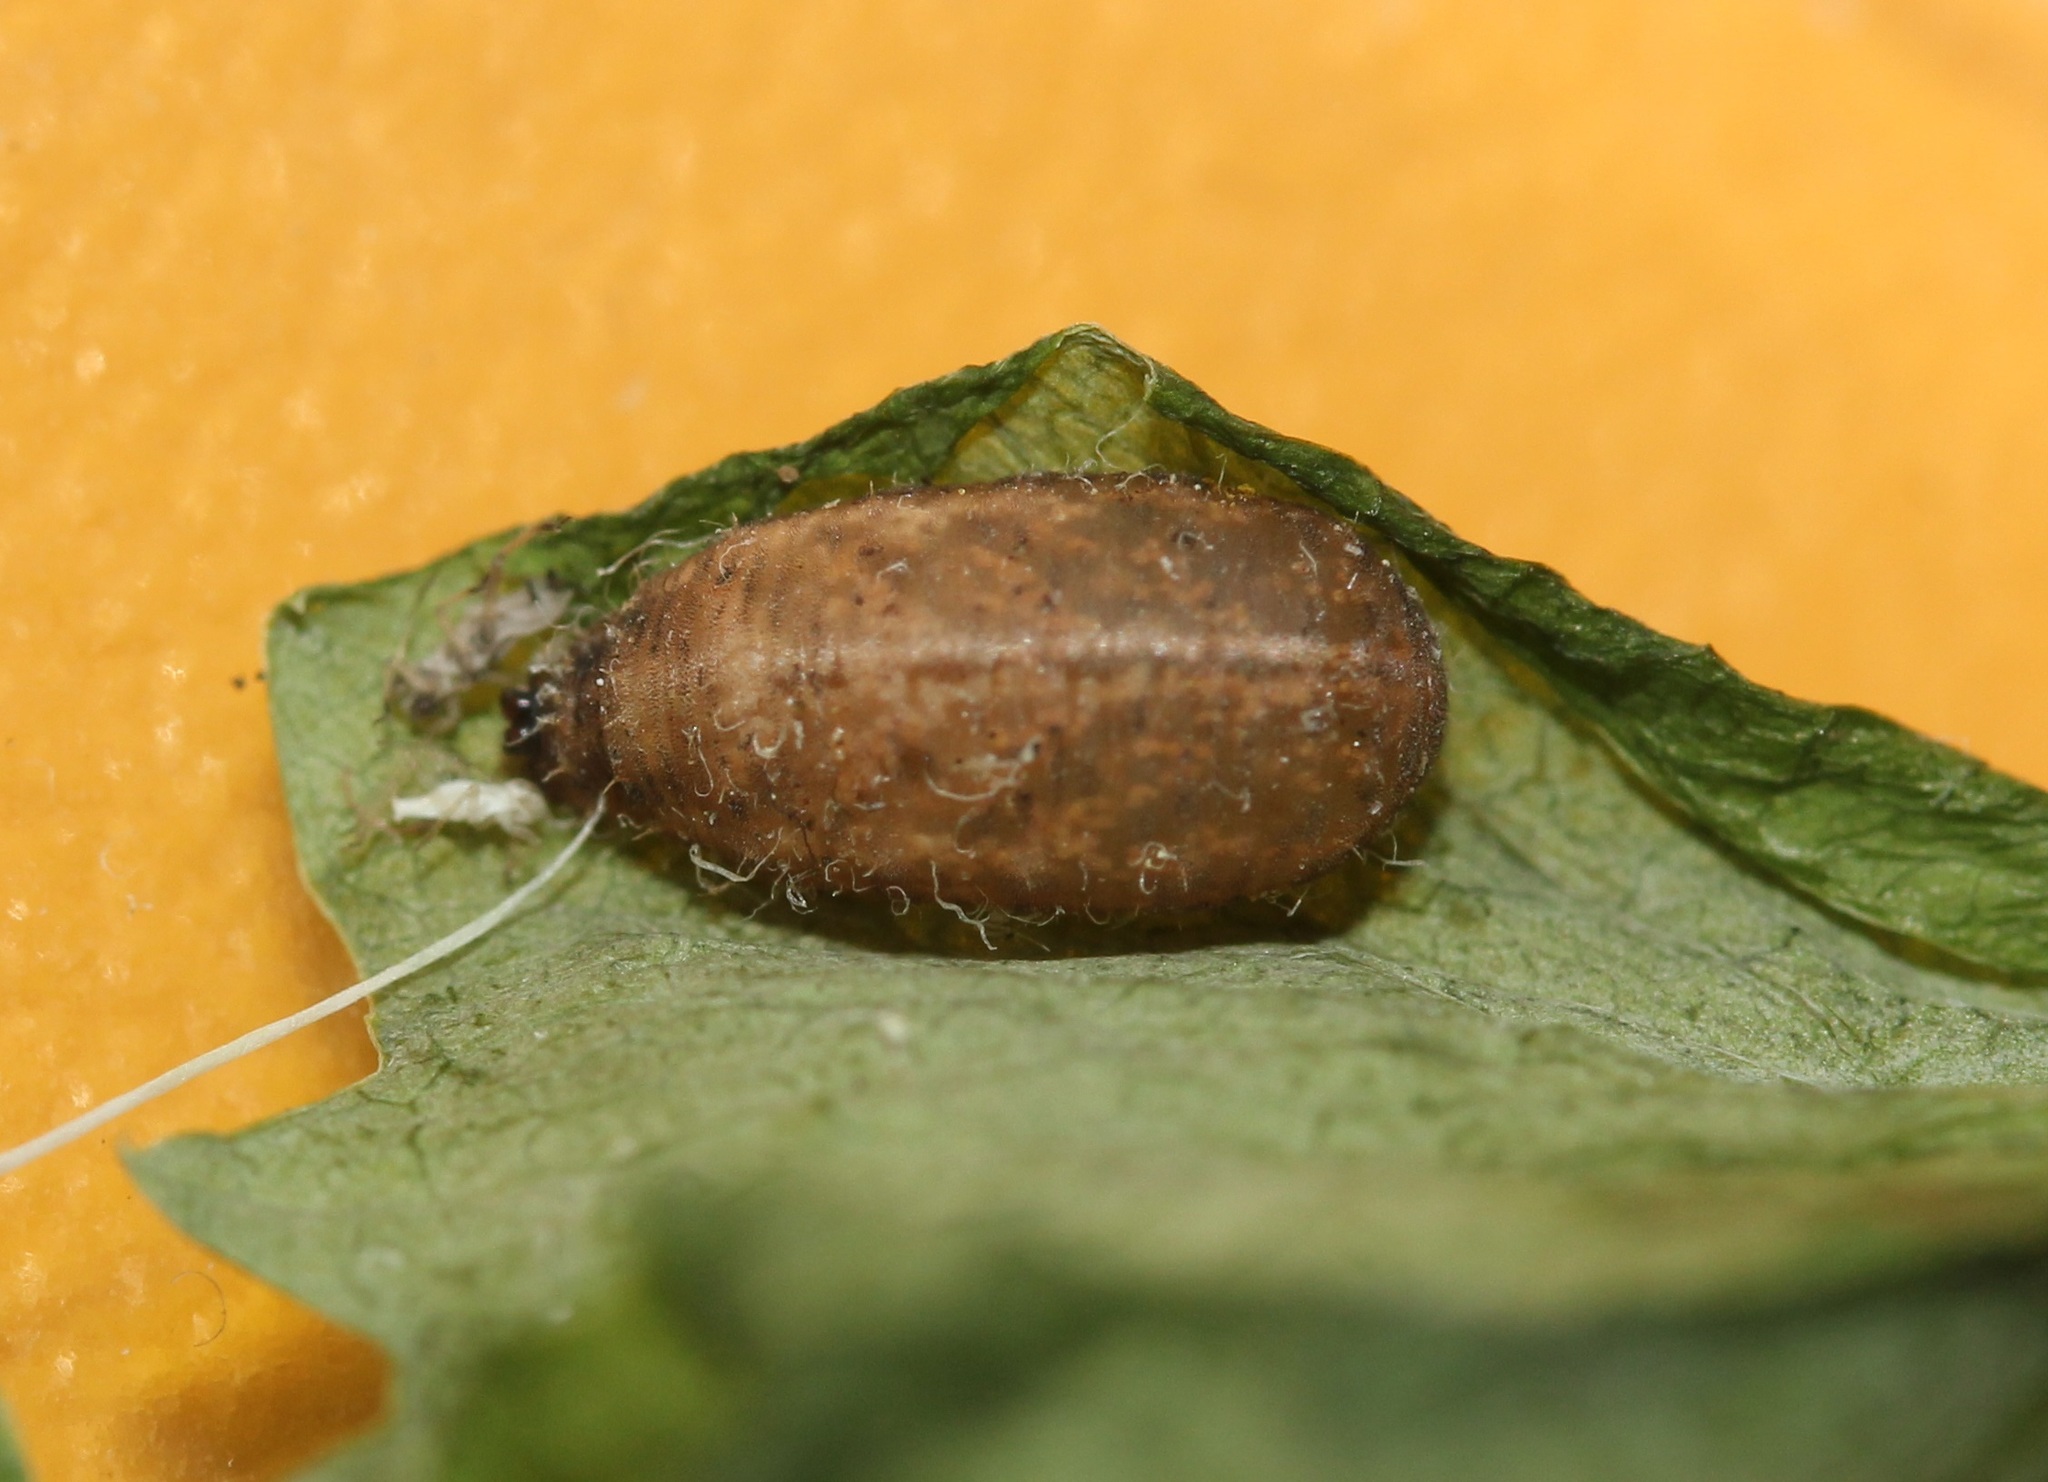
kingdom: Animalia
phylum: Arthropoda
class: Insecta
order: Diptera
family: Syrphidae
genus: Eupeodes
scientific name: Eupeodes americanus
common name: Long-tailed aphideater
